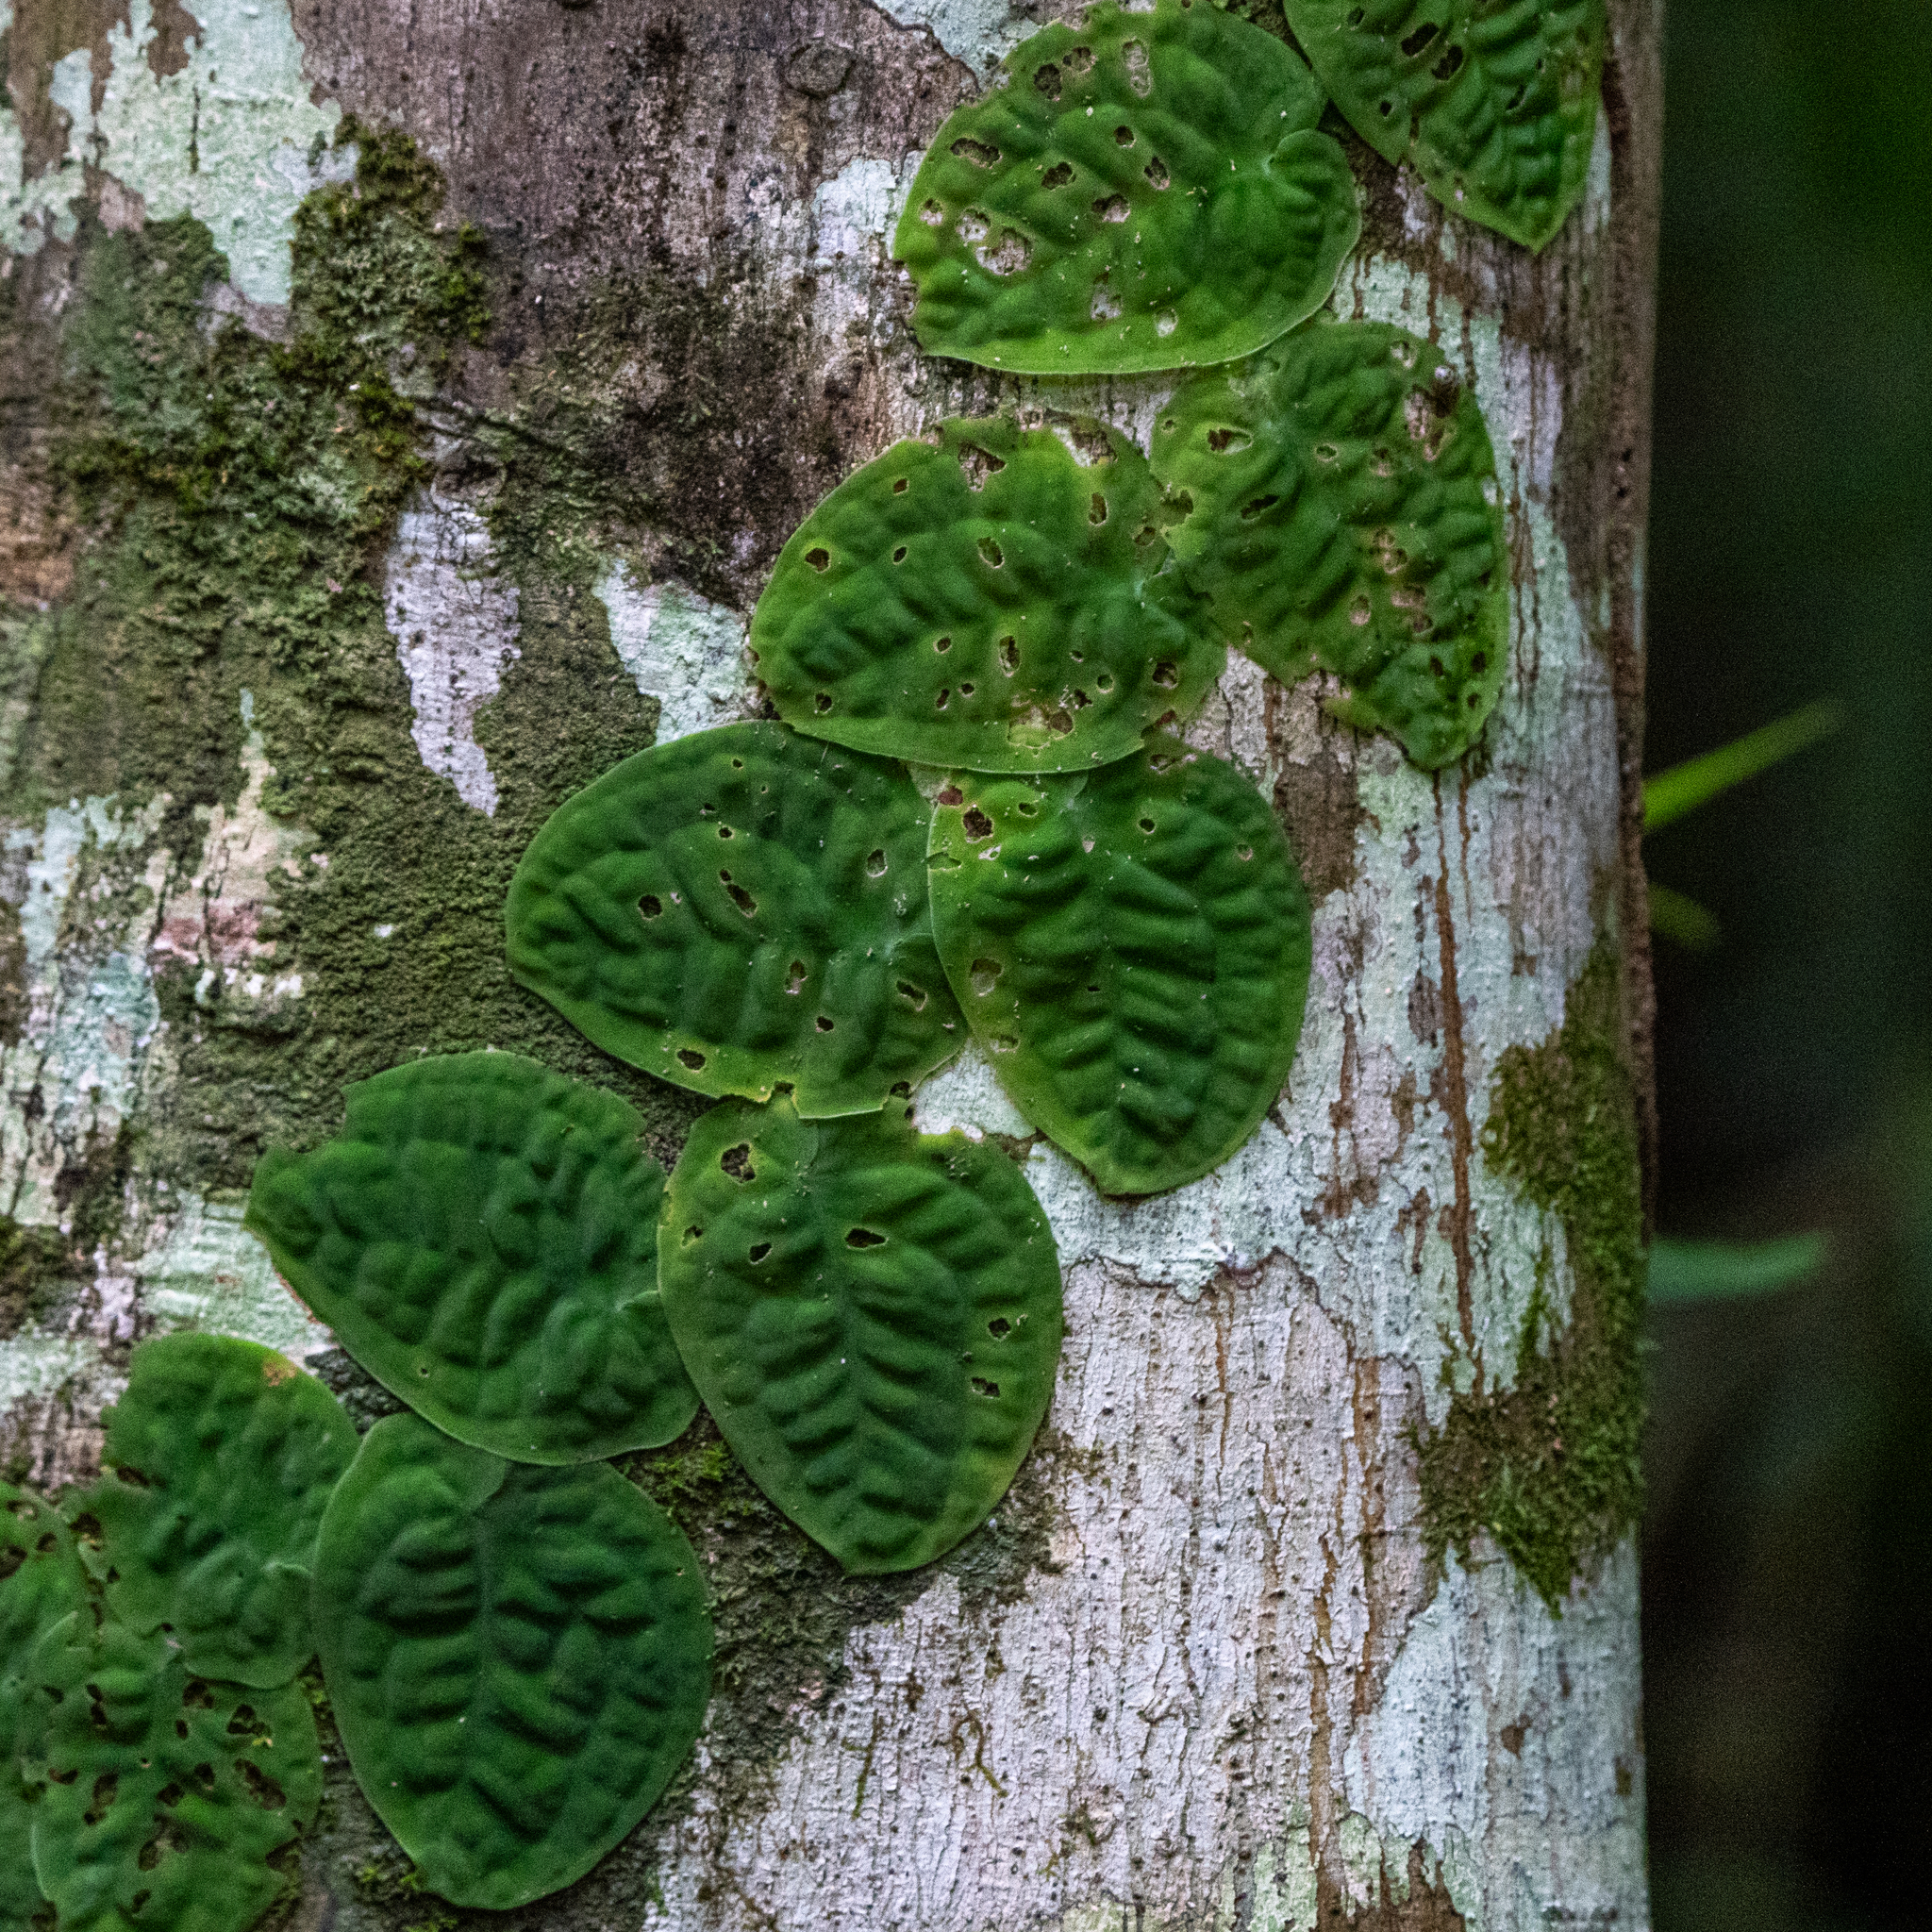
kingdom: Plantae
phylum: Tracheophyta
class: Liliopsida
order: Alismatales
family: Araceae
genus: Monstera
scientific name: Monstera dubia
